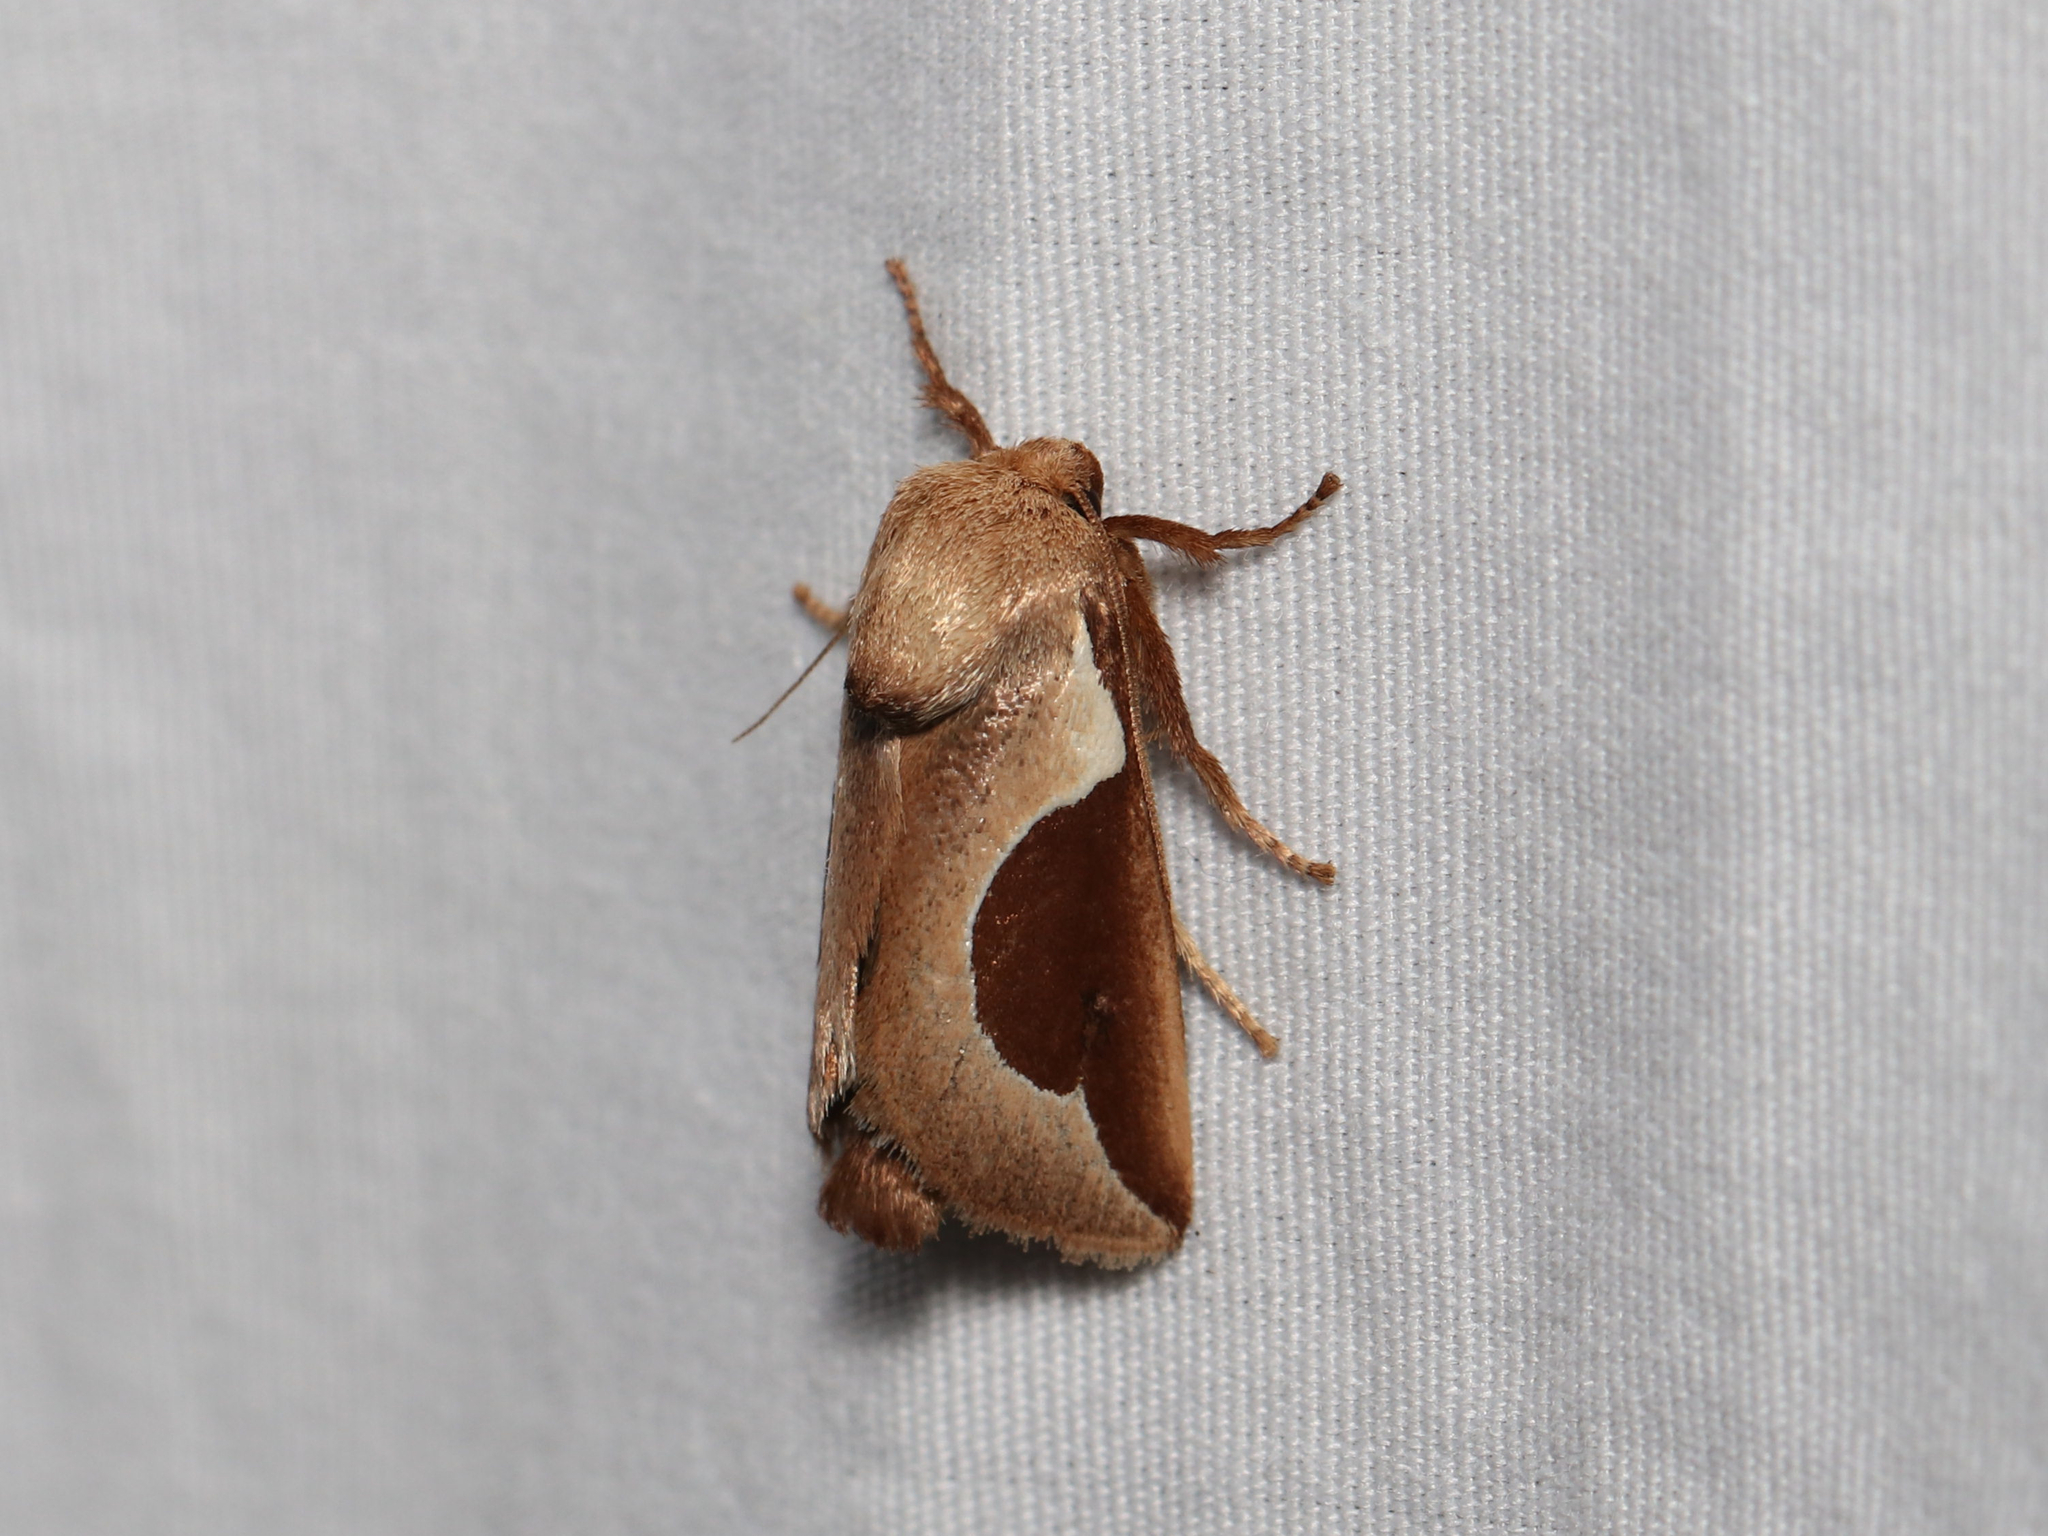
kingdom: Animalia
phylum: Arthropoda
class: Insecta
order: Lepidoptera
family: Limacodidae
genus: Prolimacodes
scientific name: Prolimacodes badia
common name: Skiff moth
